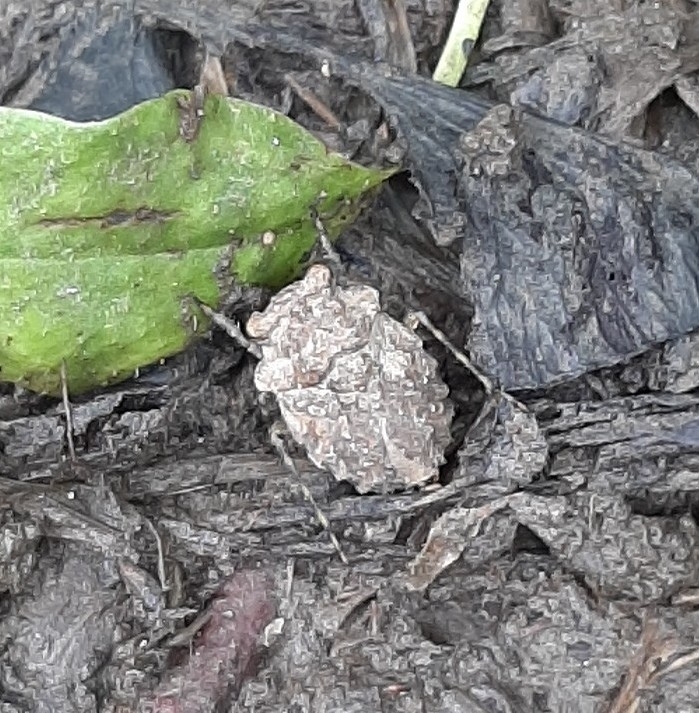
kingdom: Animalia
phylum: Arthropoda
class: Insecta
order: Hemiptera
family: Gelastocoridae
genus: Gelastocoris
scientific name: Gelastocoris oculatus
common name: Toad bug
